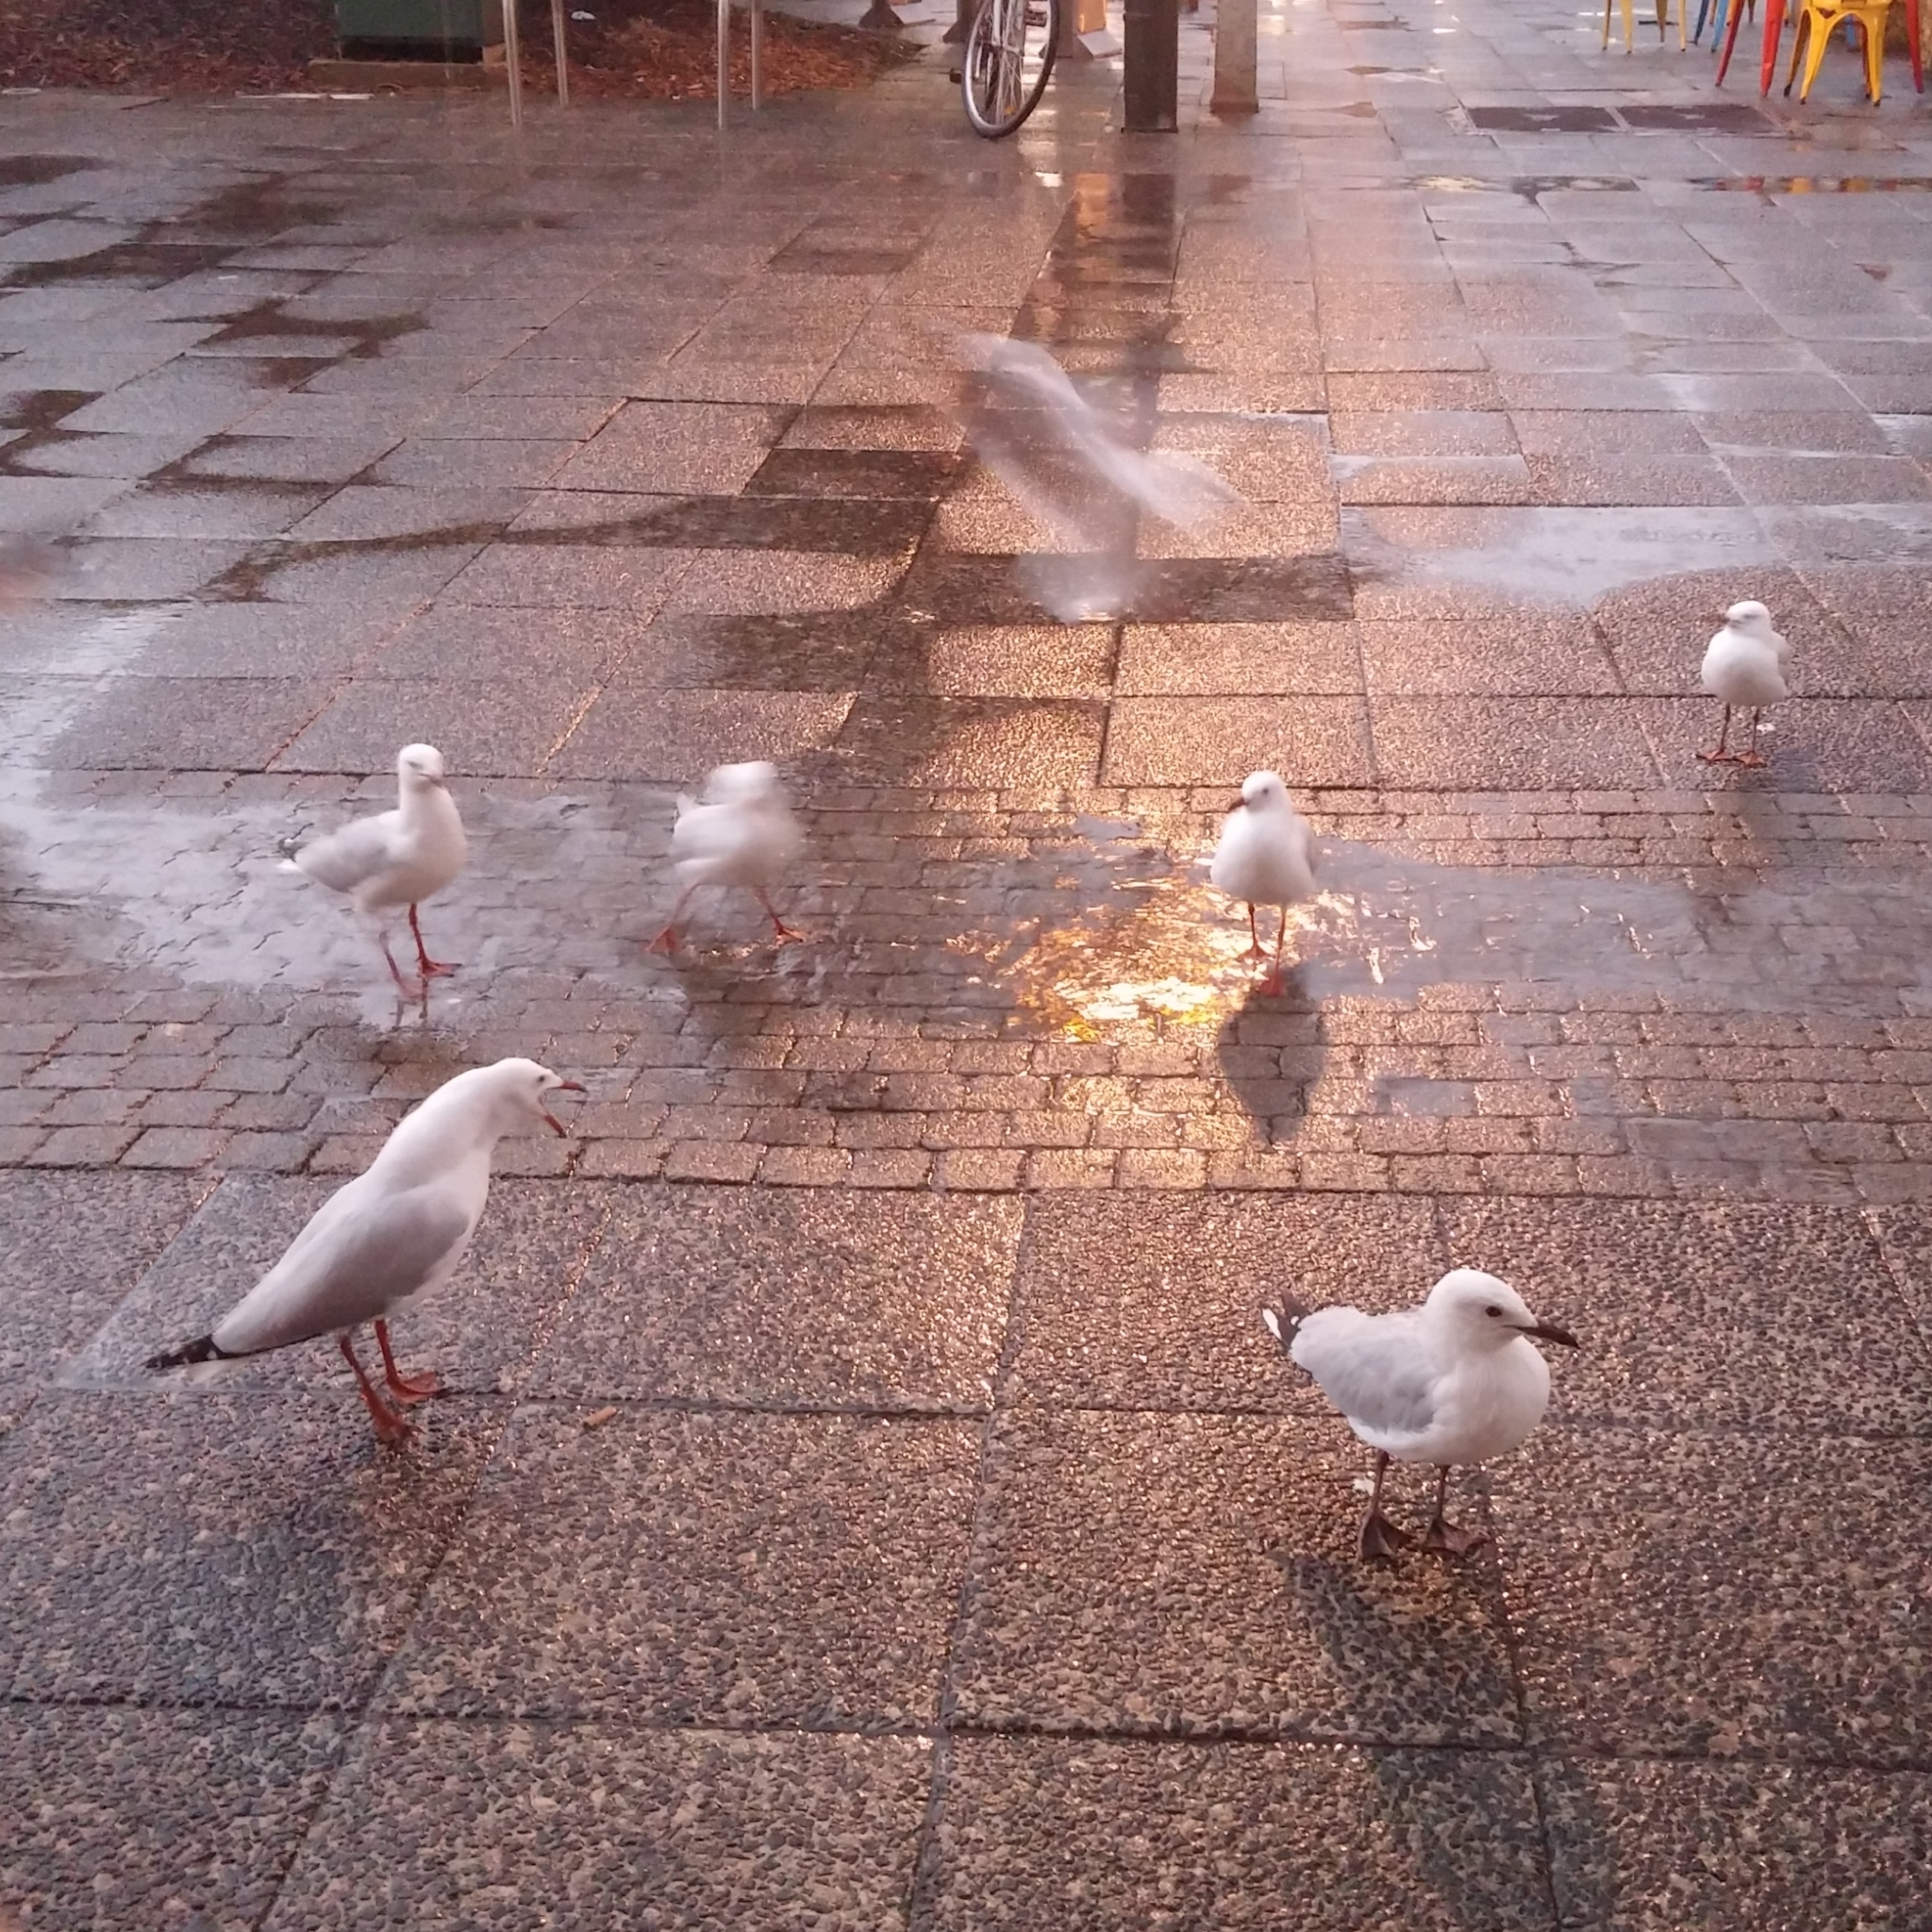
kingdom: Animalia
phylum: Chordata
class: Aves
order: Charadriiformes
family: Laridae
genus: Chroicocephalus
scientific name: Chroicocephalus novaehollandiae
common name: Silver gull
